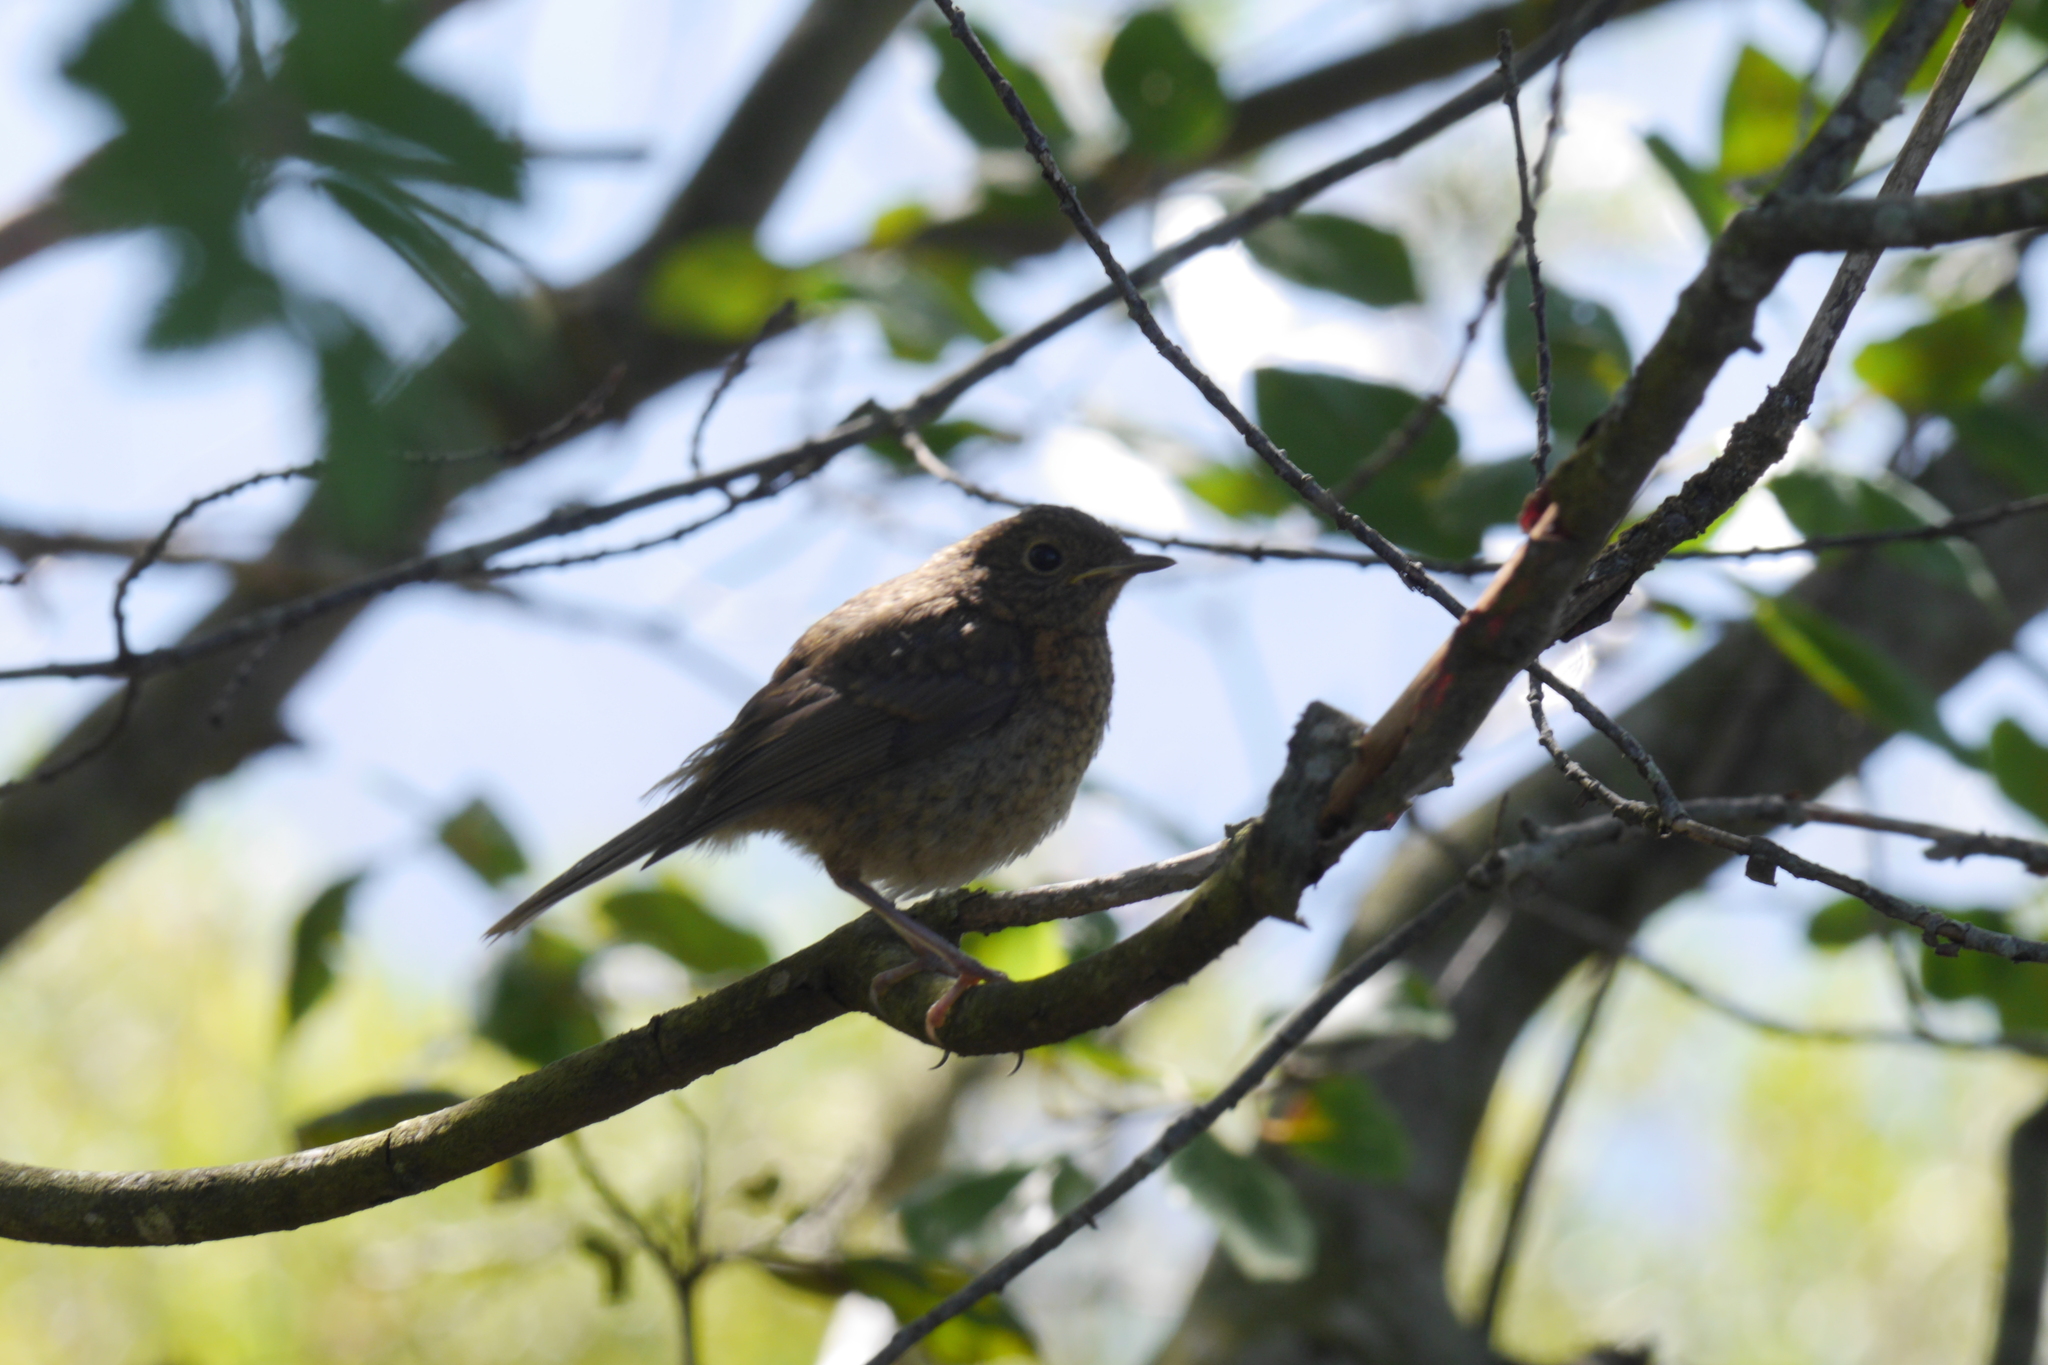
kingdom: Animalia
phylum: Chordata
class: Aves
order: Passeriformes
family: Muscicapidae
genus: Erithacus
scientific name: Erithacus rubecula
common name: European robin
